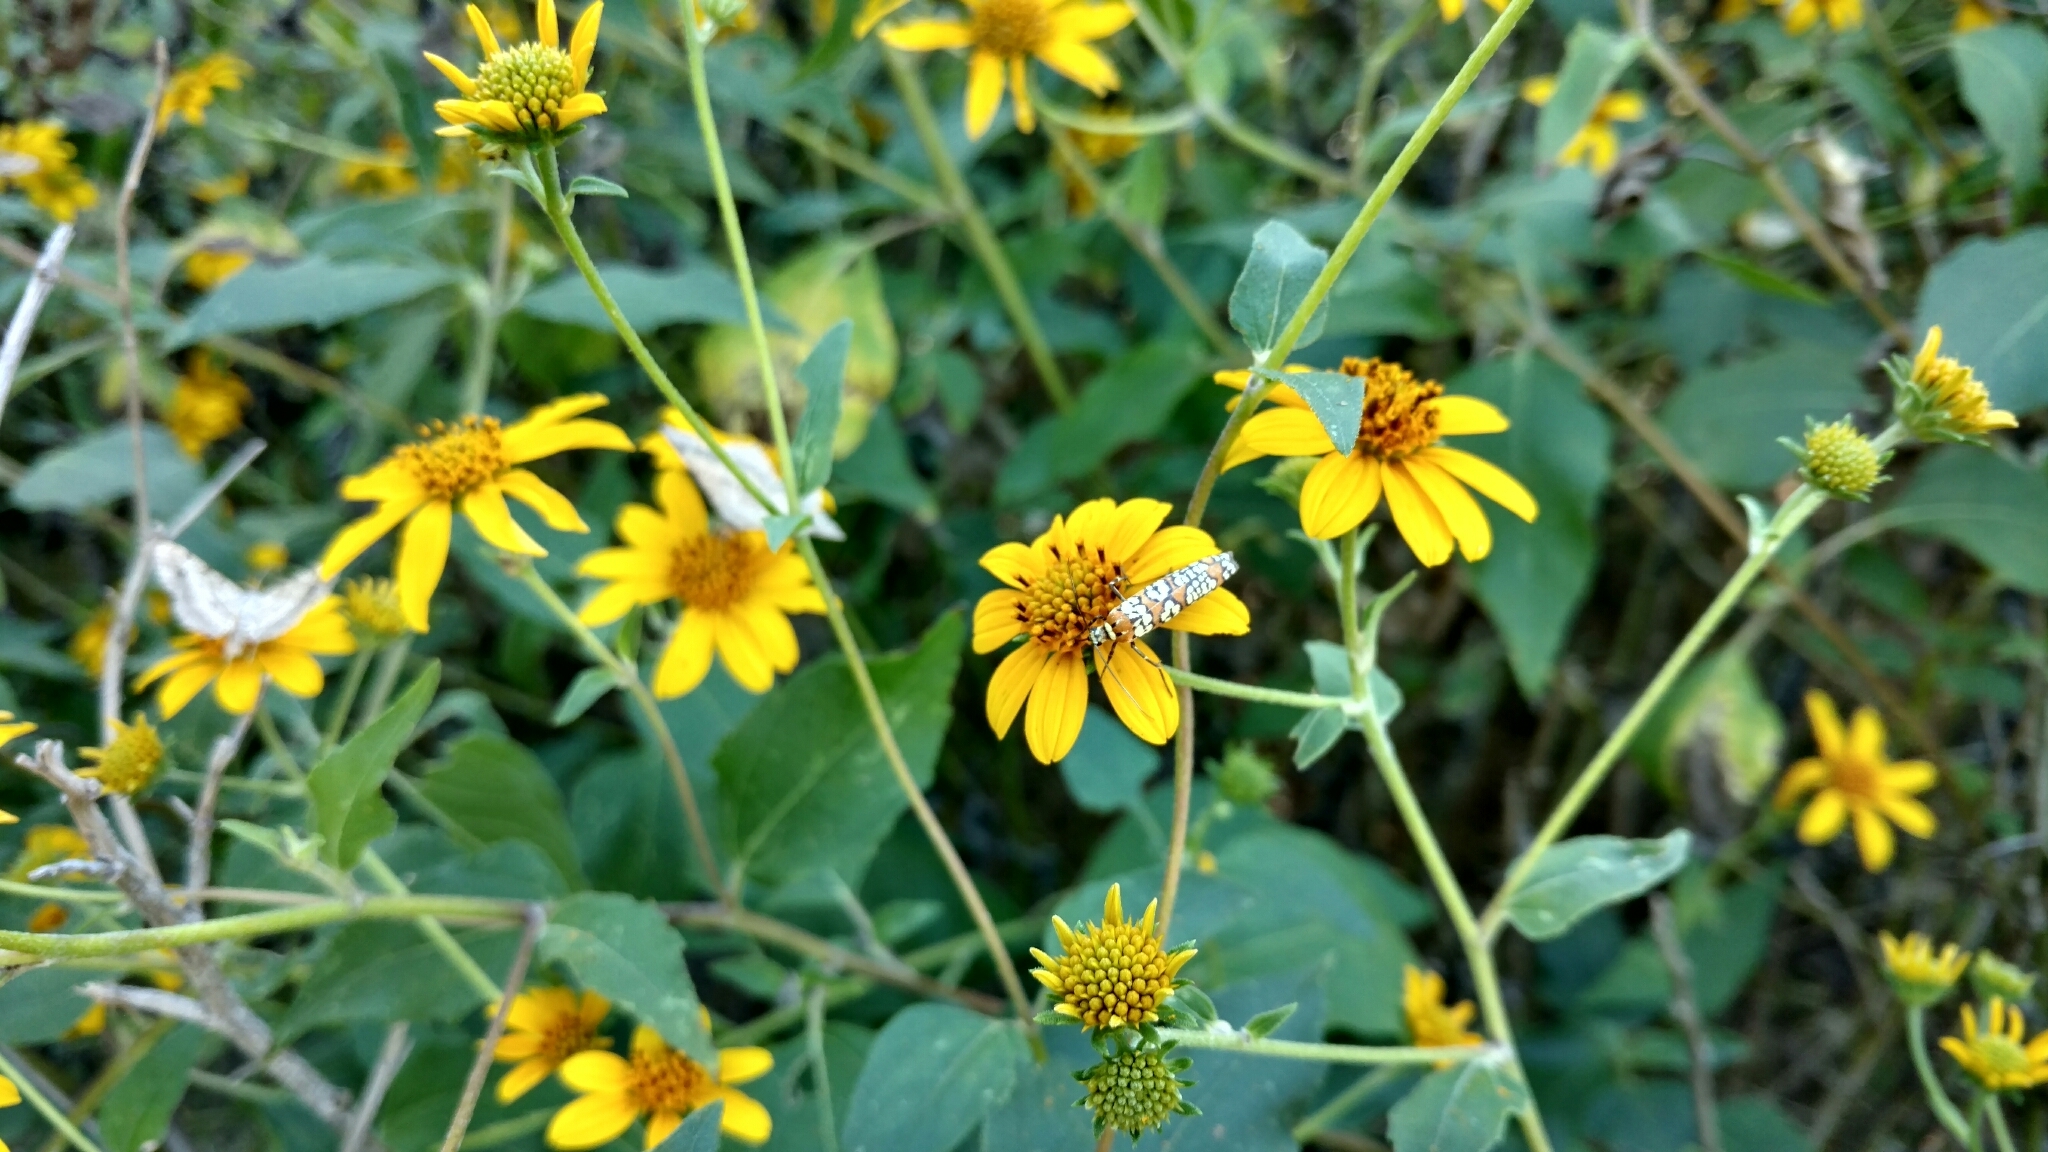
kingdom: Animalia
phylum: Arthropoda
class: Insecta
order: Lepidoptera
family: Attevidae
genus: Atteva
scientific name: Atteva punctella
